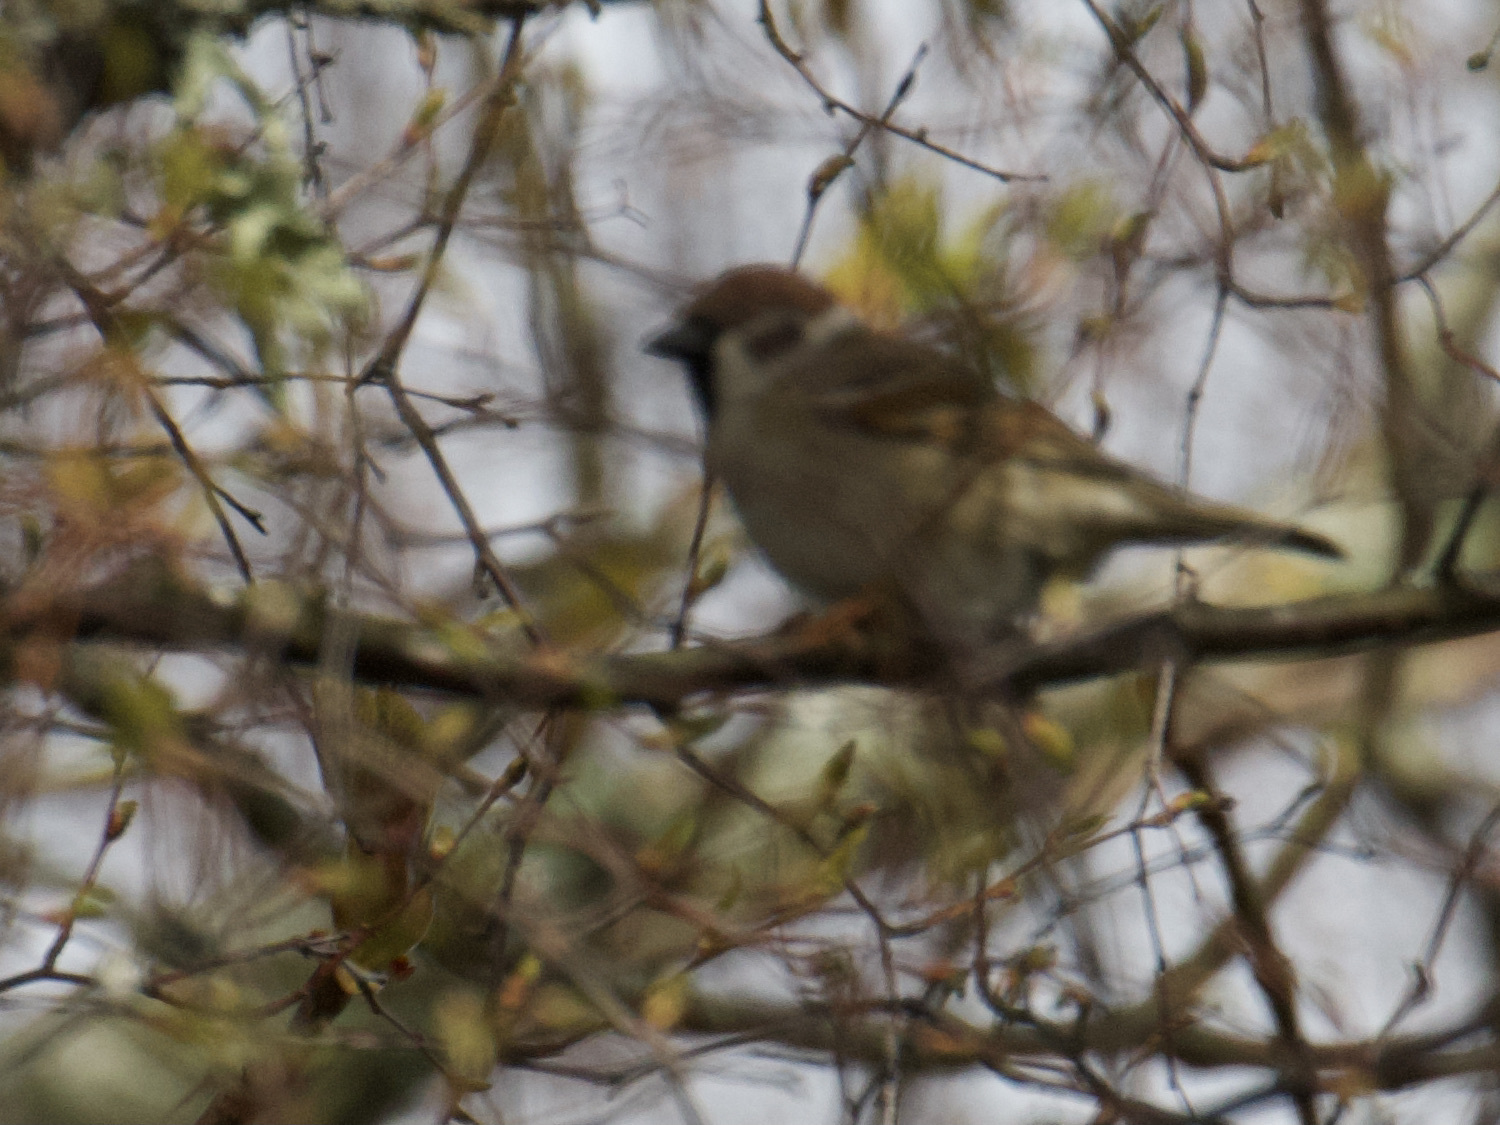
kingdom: Animalia
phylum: Chordata
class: Aves
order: Passeriformes
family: Passeridae
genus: Passer
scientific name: Passer montanus
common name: Eurasian tree sparrow
